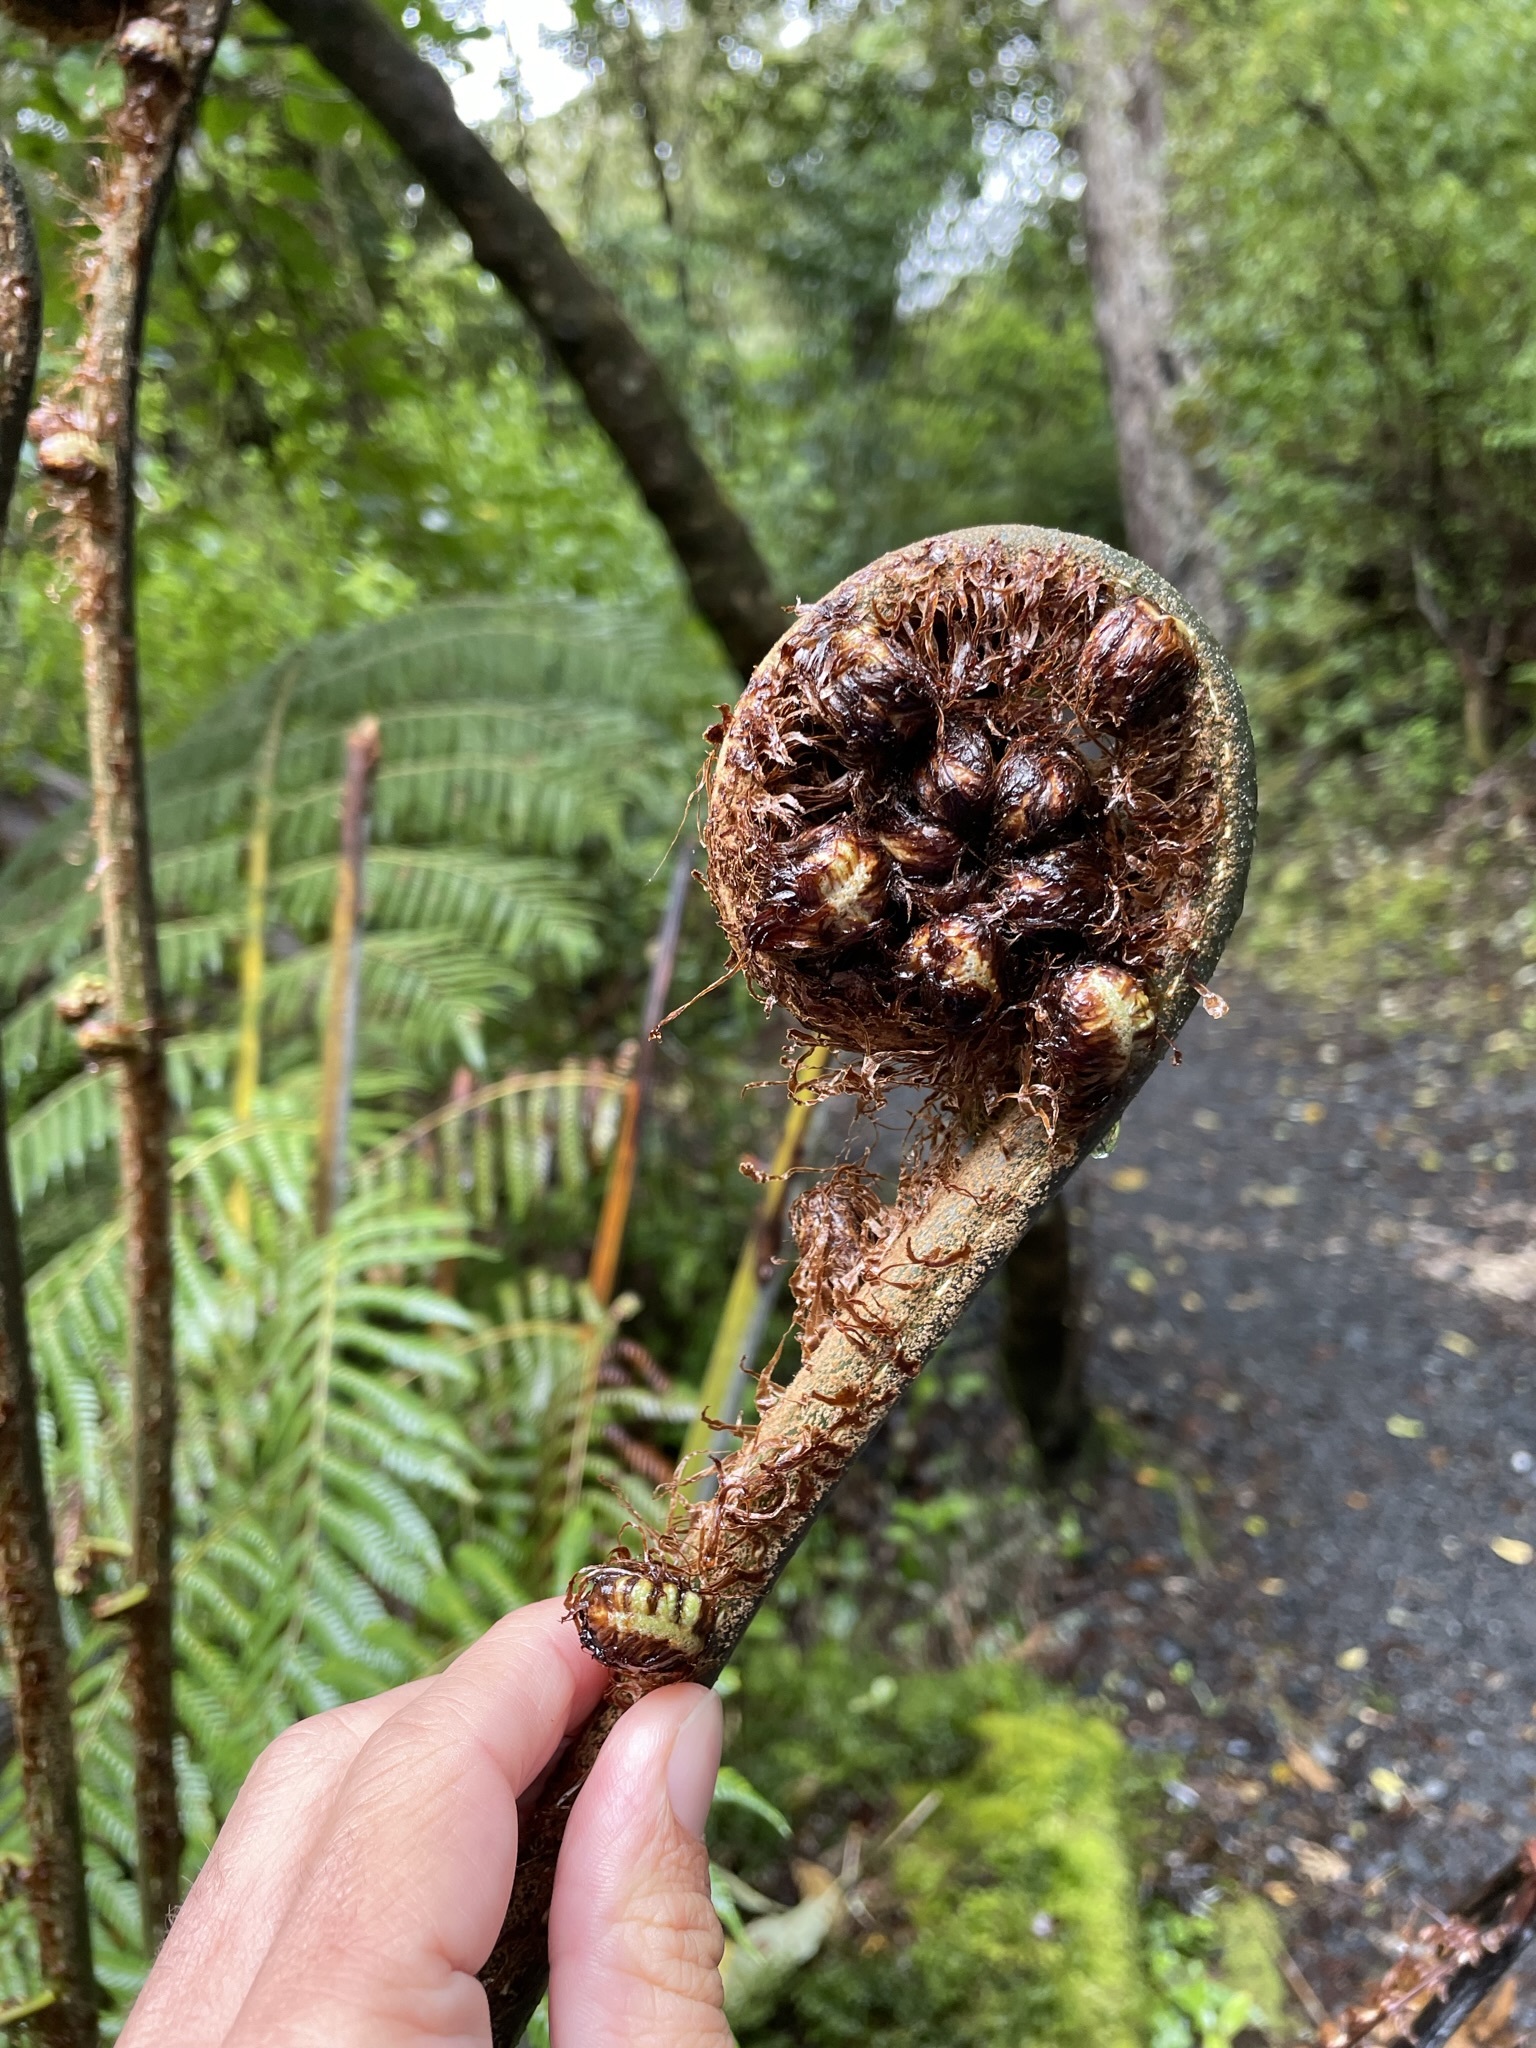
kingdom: Plantae
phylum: Tracheophyta
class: Polypodiopsida
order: Cyatheales
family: Cyatheaceae
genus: Alsophila
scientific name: Alsophila dealbata
